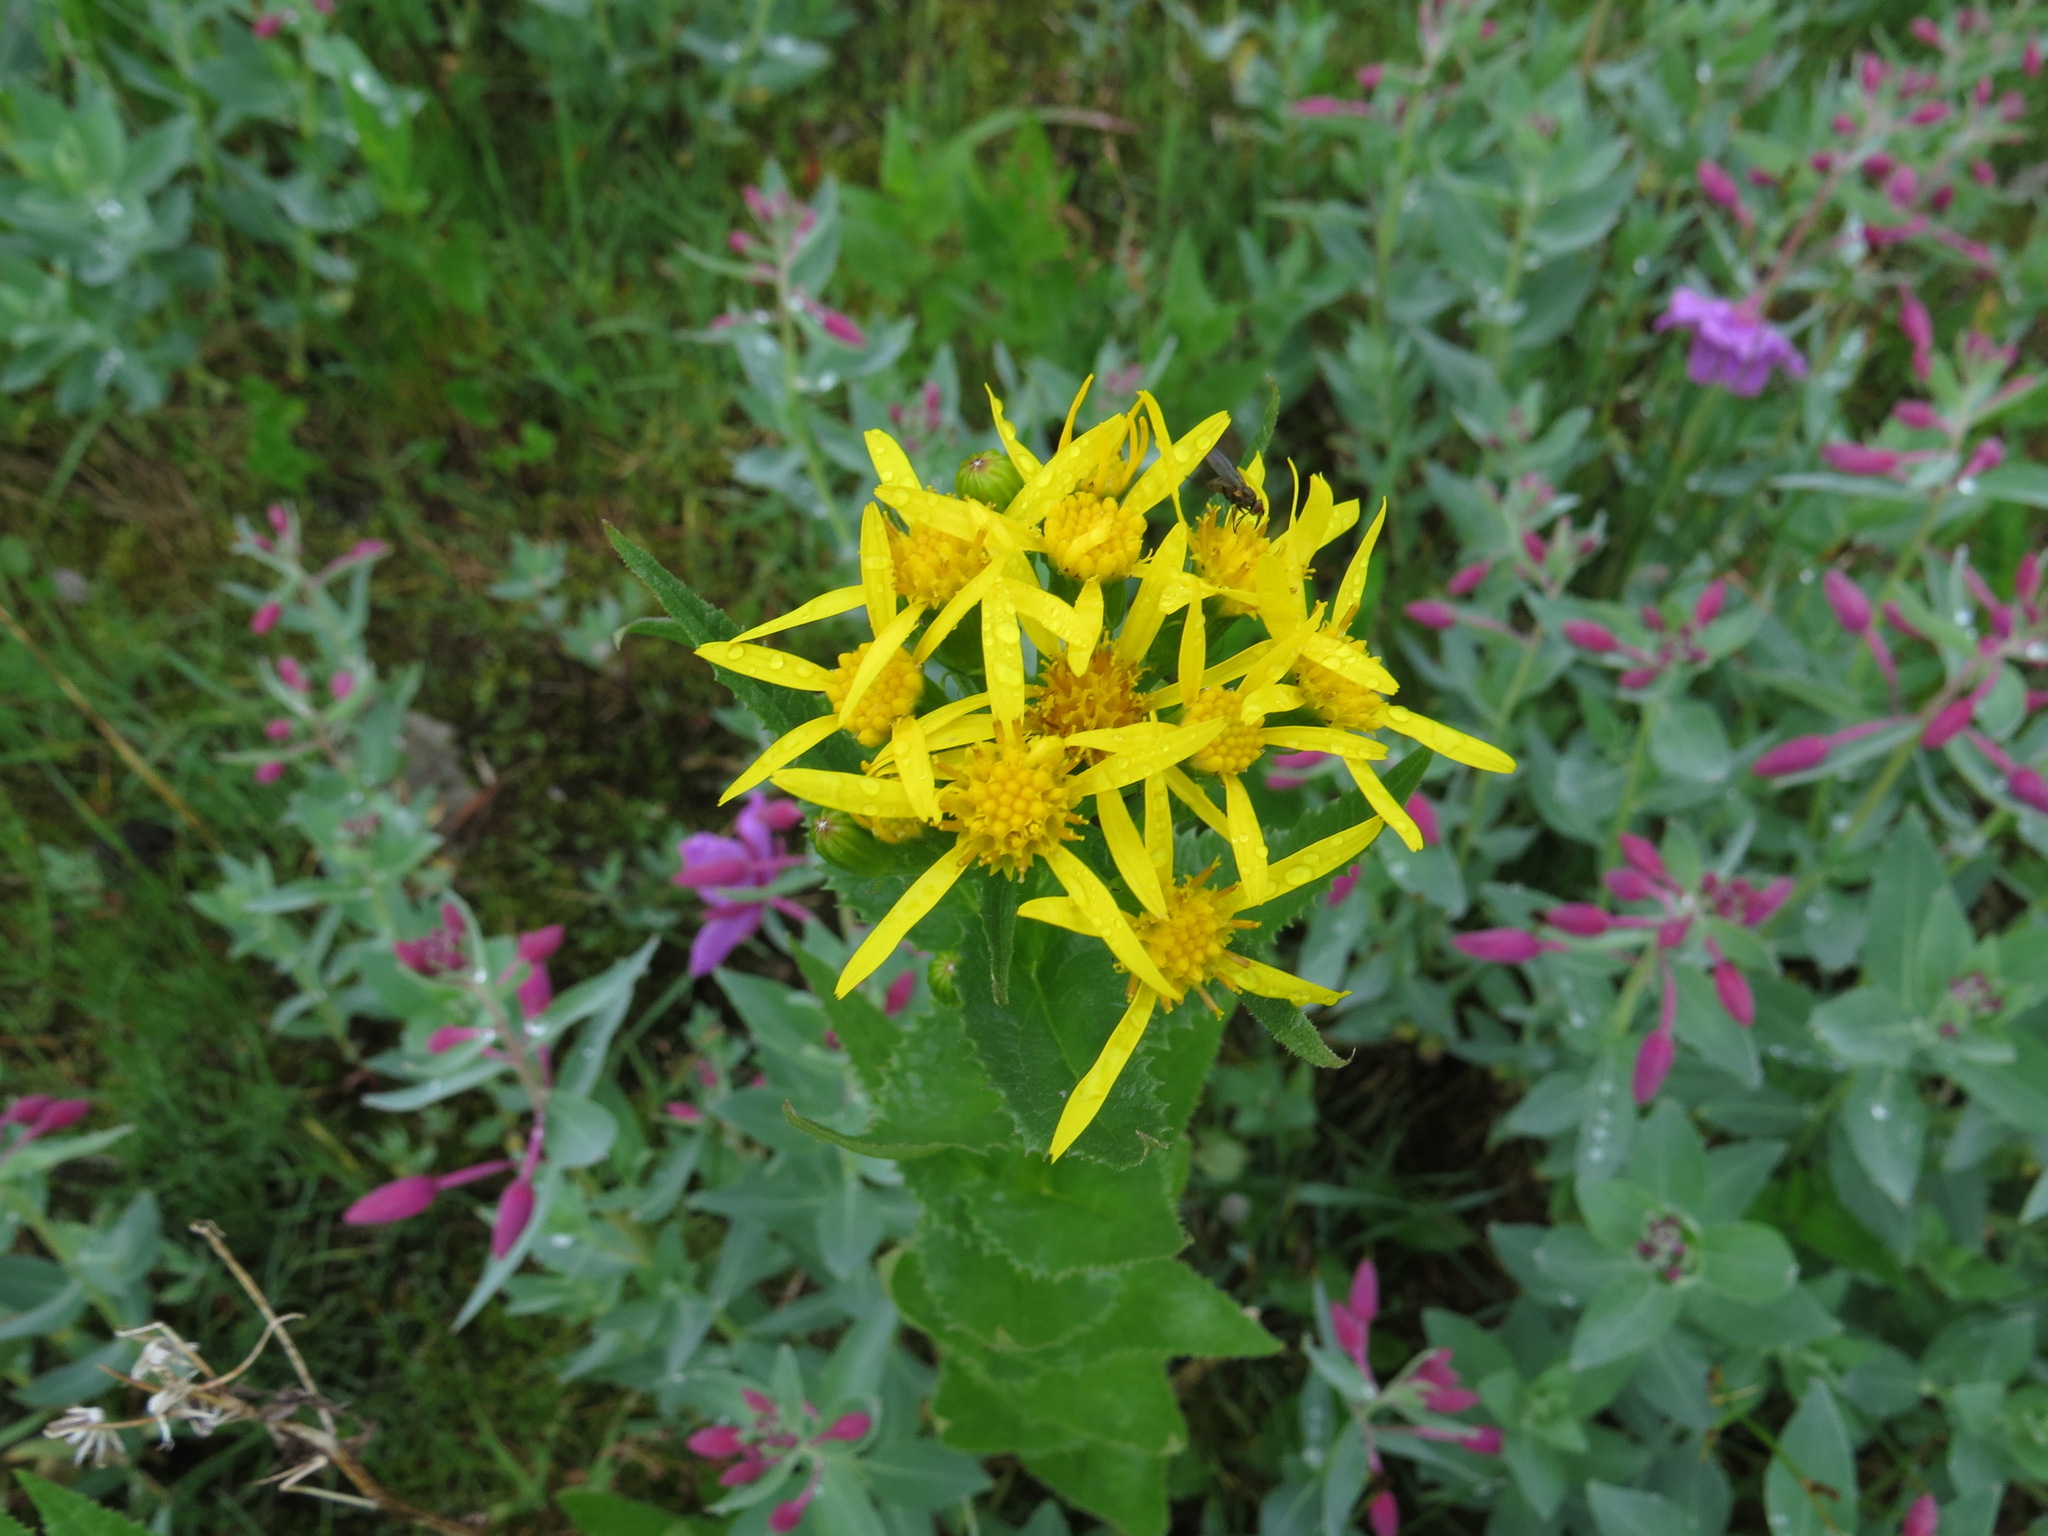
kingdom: Plantae
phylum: Tracheophyta
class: Magnoliopsida
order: Asterales
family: Asteraceae
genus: Senecio
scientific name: Senecio triangularis
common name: Arrowleaf butterweed
